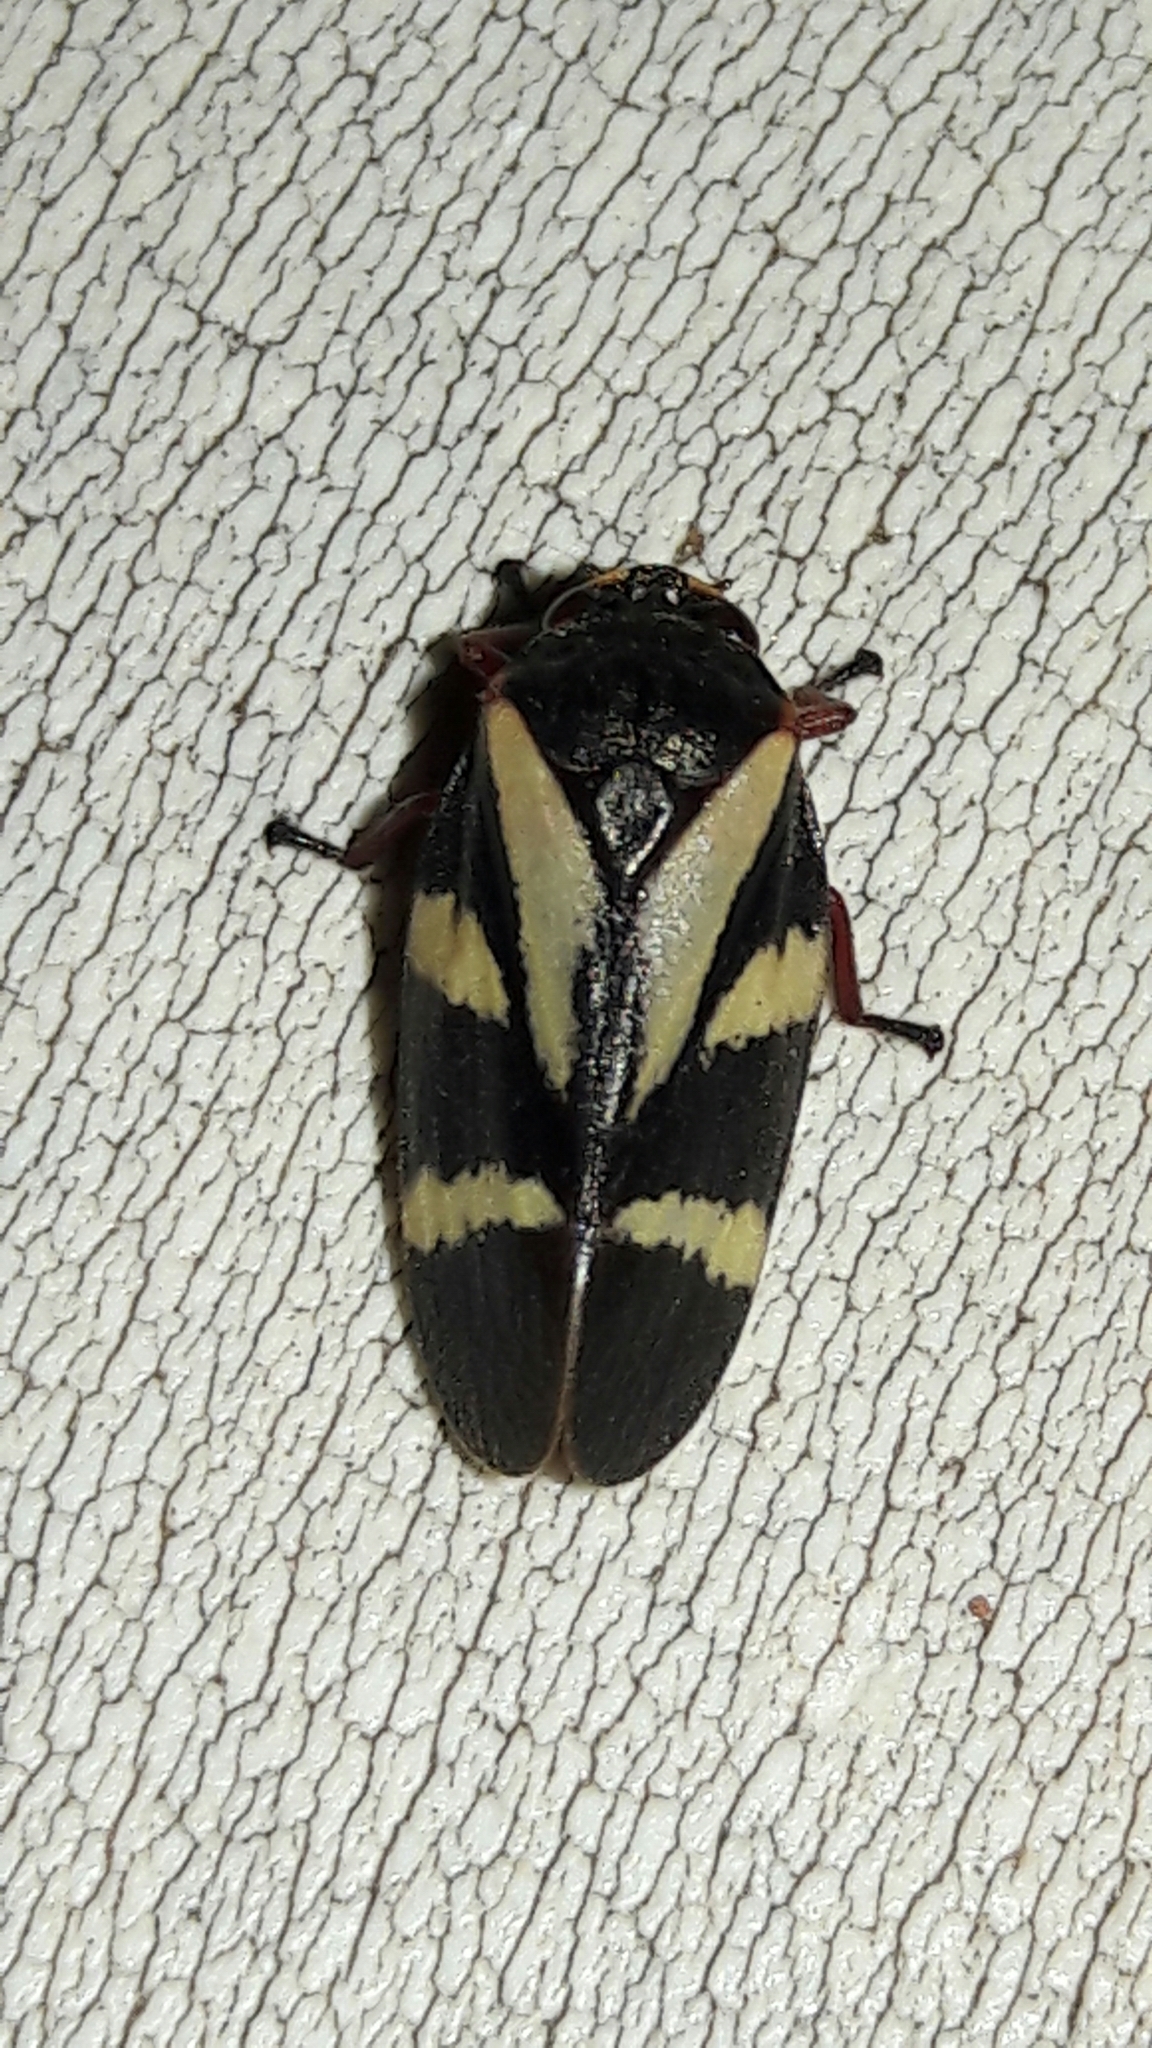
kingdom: Animalia
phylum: Arthropoda
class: Insecta
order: Hemiptera
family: Cercopidae
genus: Deois
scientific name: Deois flavopicta
